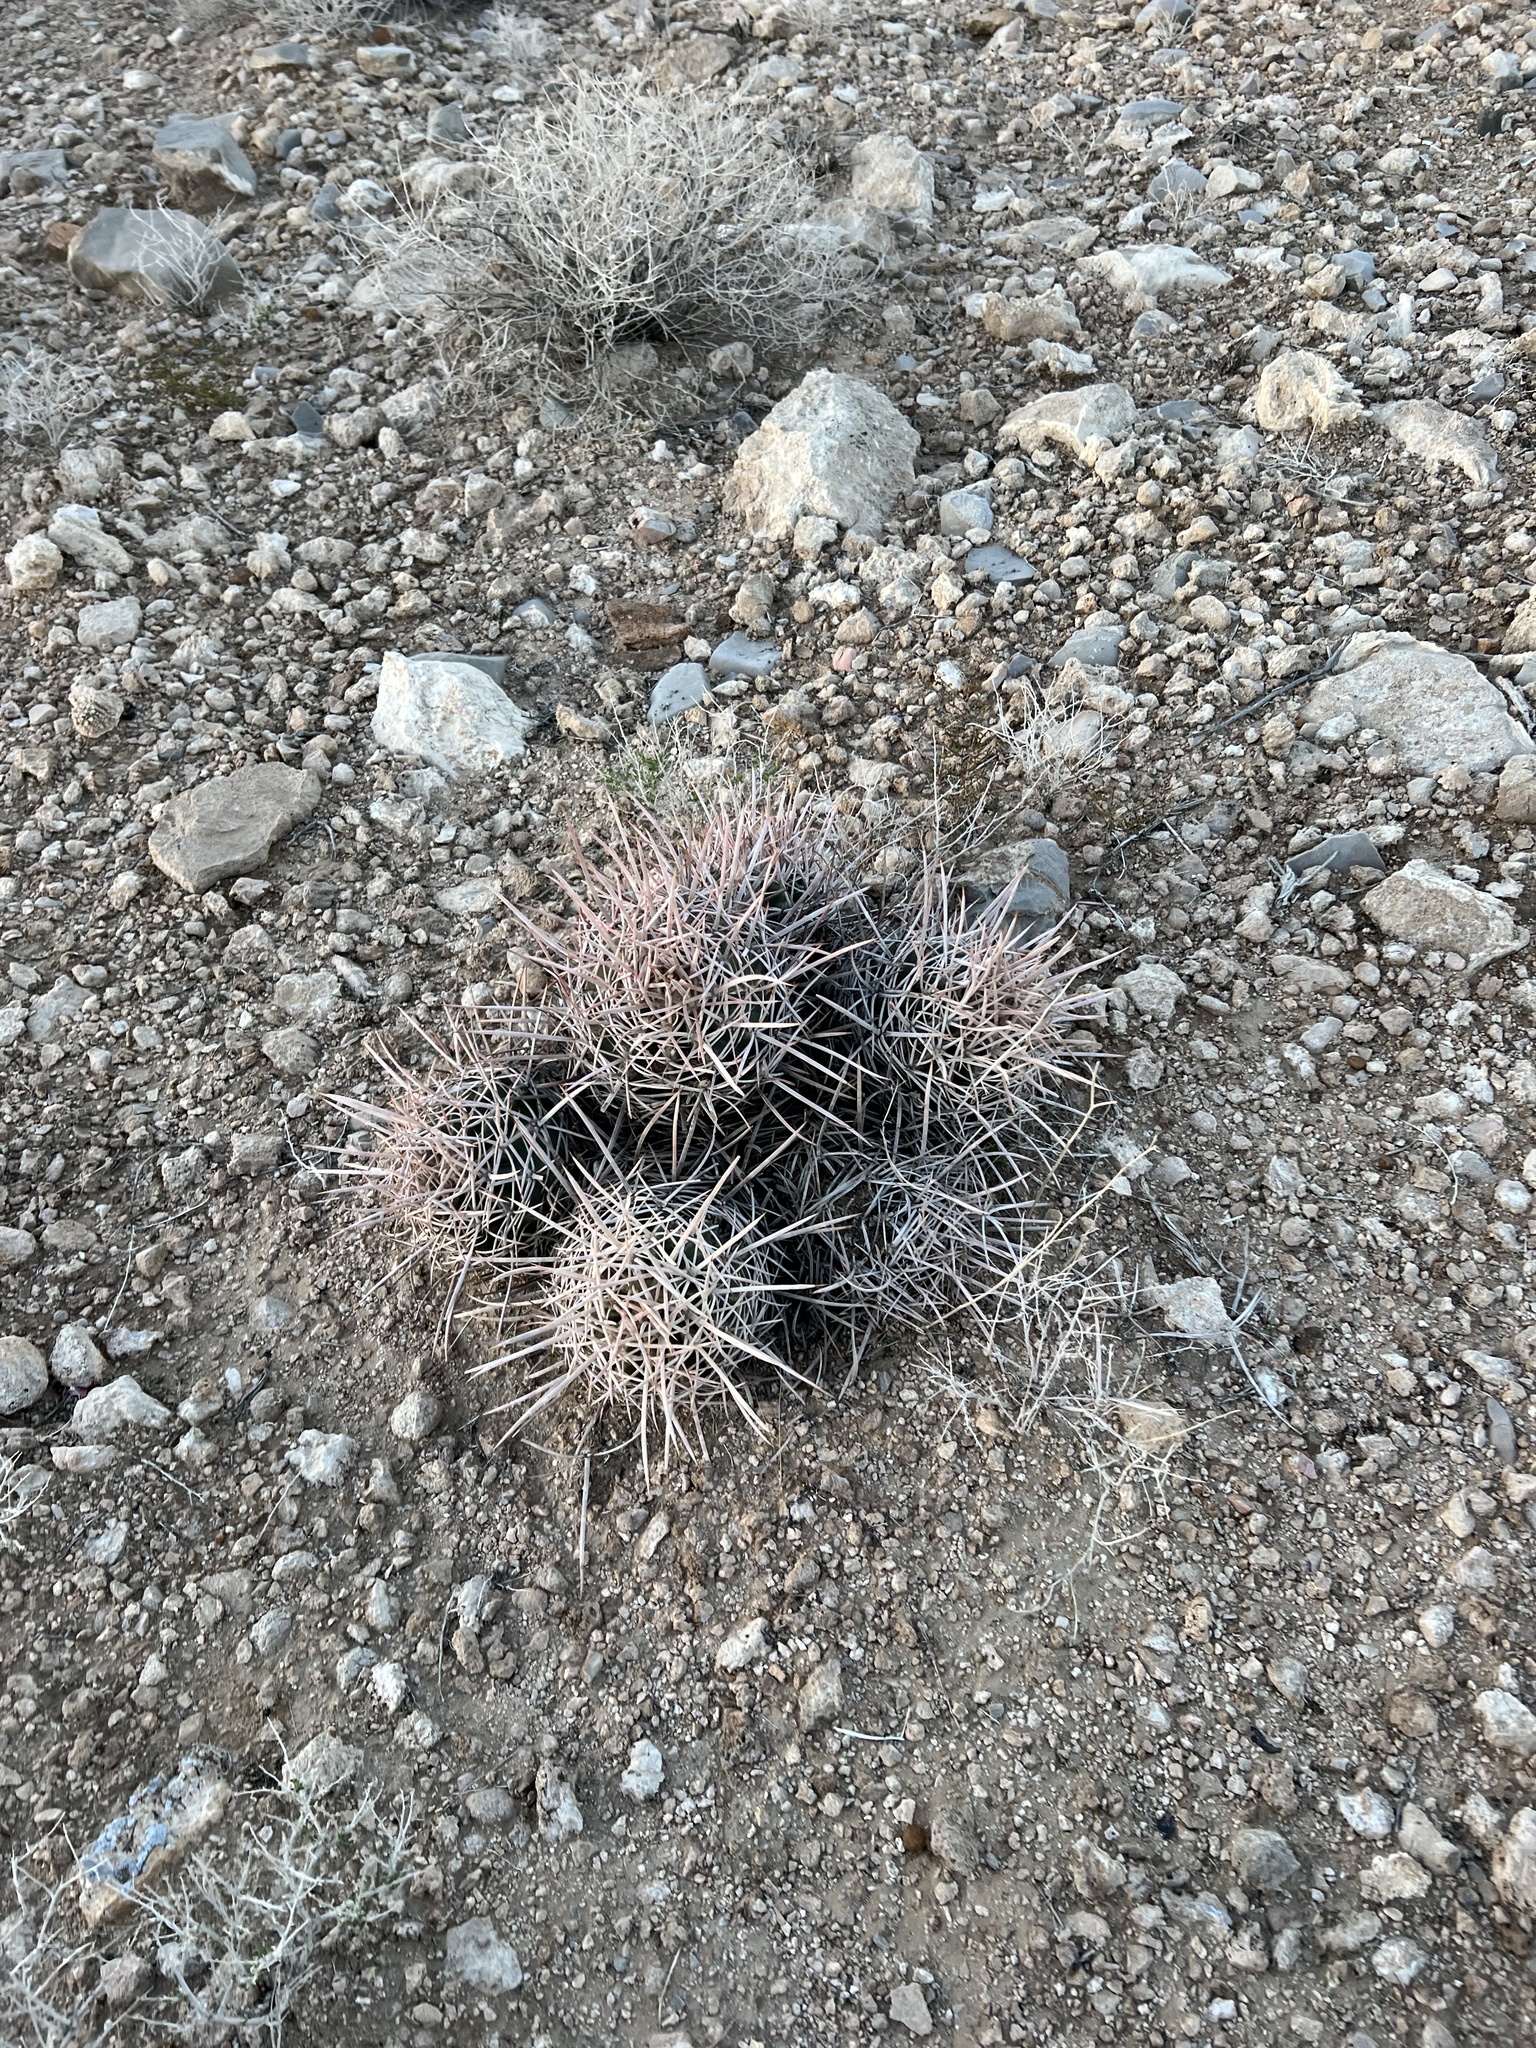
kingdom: Plantae
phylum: Tracheophyta
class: Magnoliopsida
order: Caryophyllales
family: Cactaceae
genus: Echinocactus
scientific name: Echinocactus polycephalus
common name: Cottontop cactus
